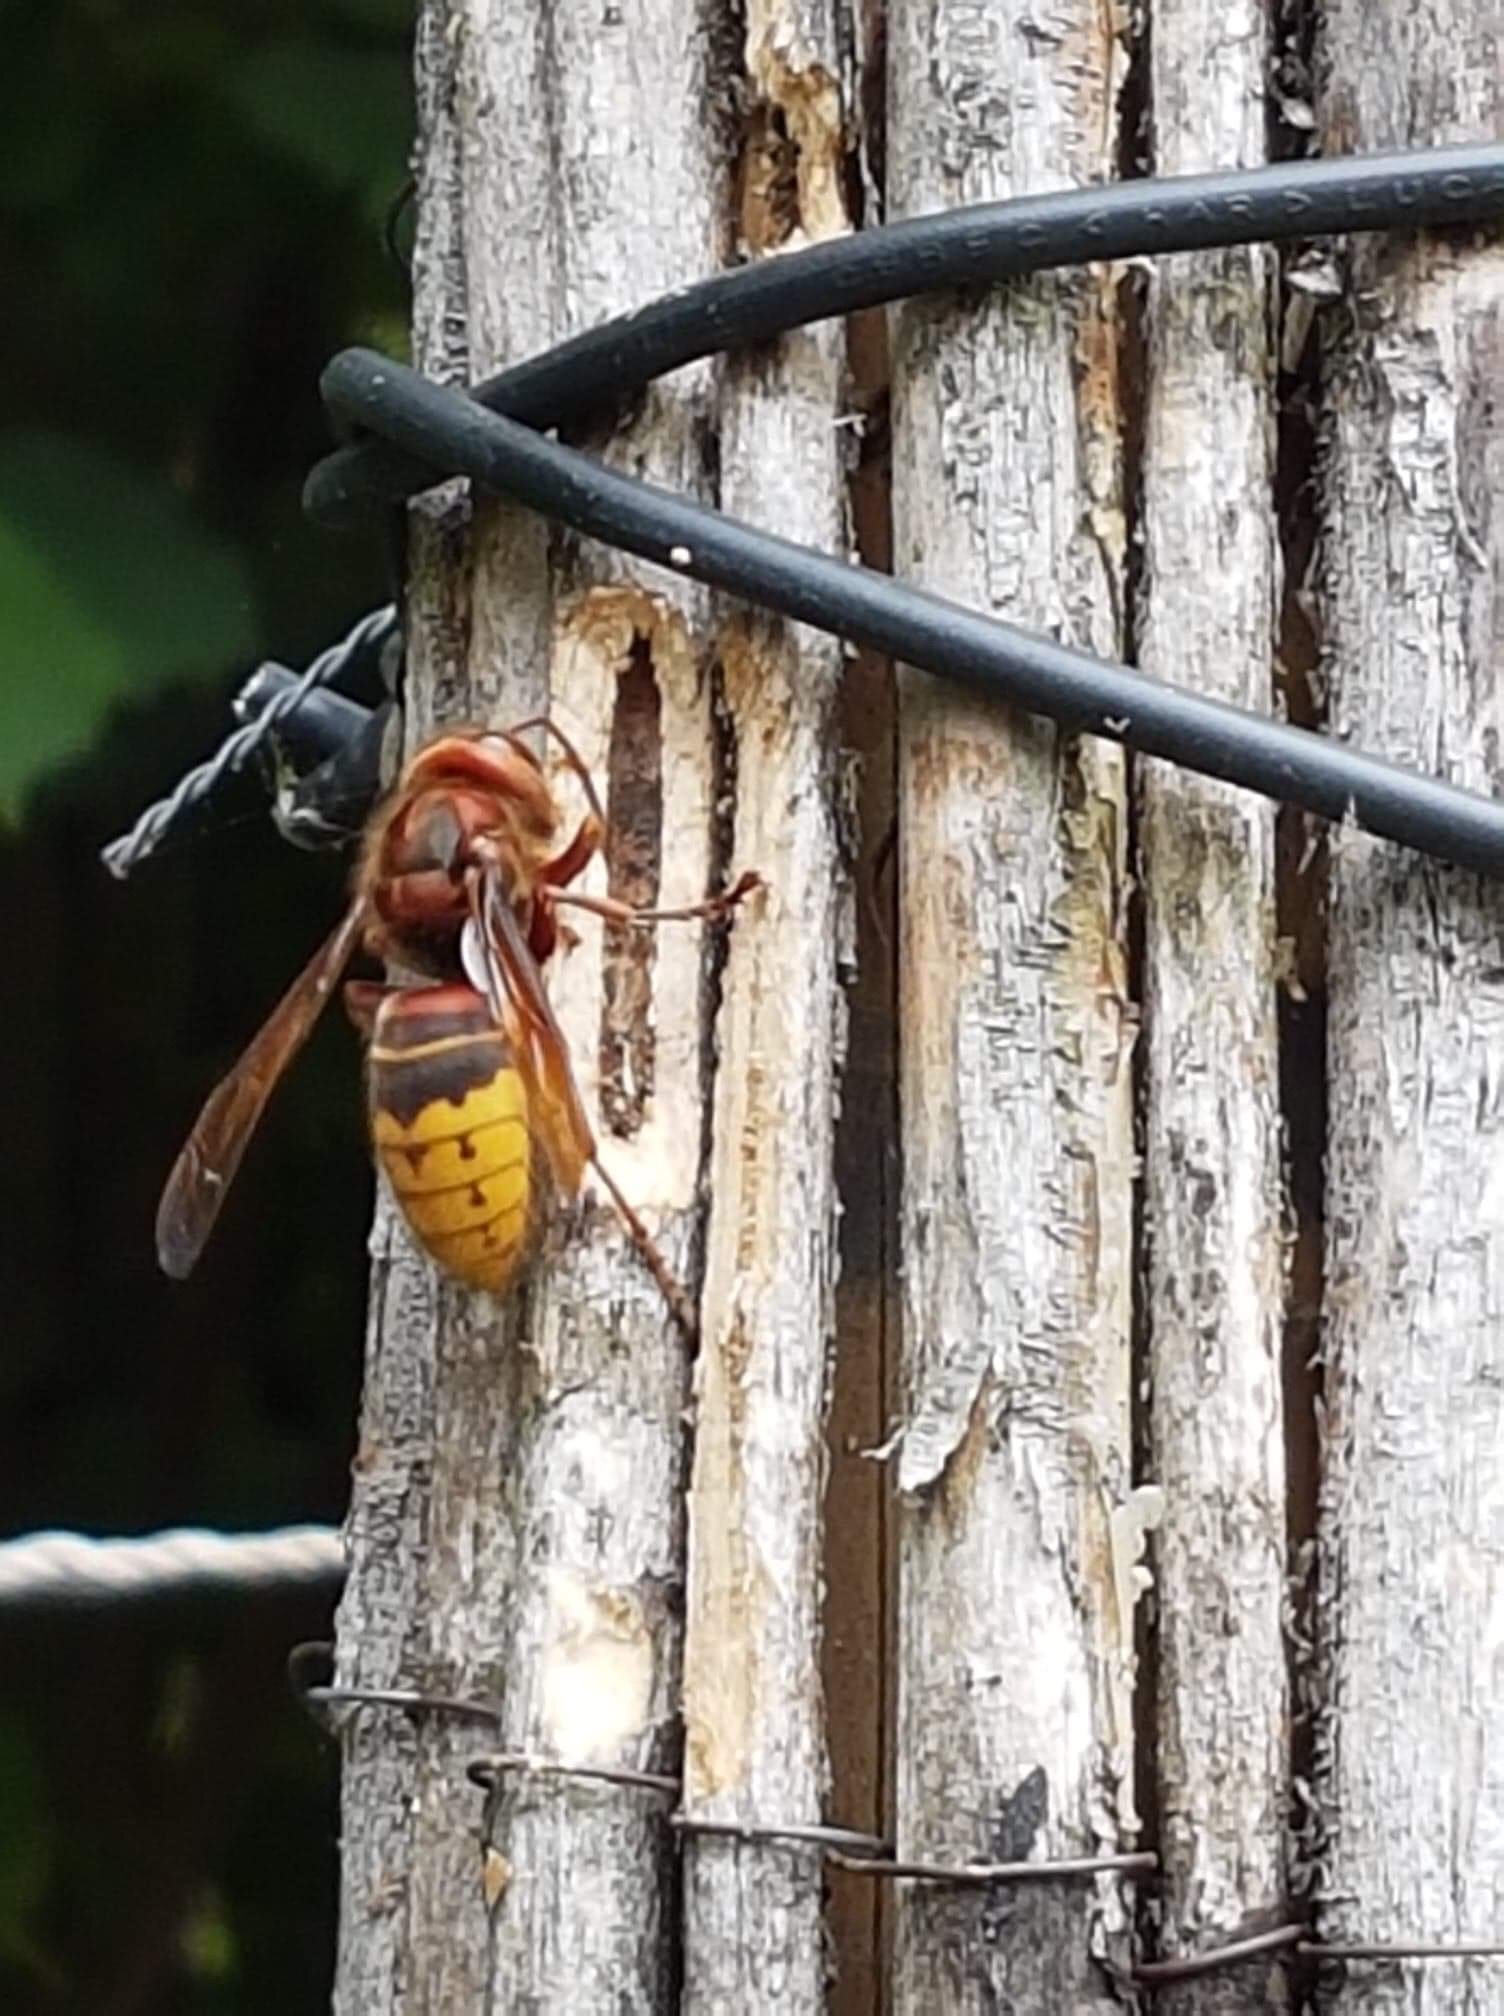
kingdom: Animalia
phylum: Arthropoda
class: Insecta
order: Hymenoptera
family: Vespidae
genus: Vespa
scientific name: Vespa crabro
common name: Hornet
